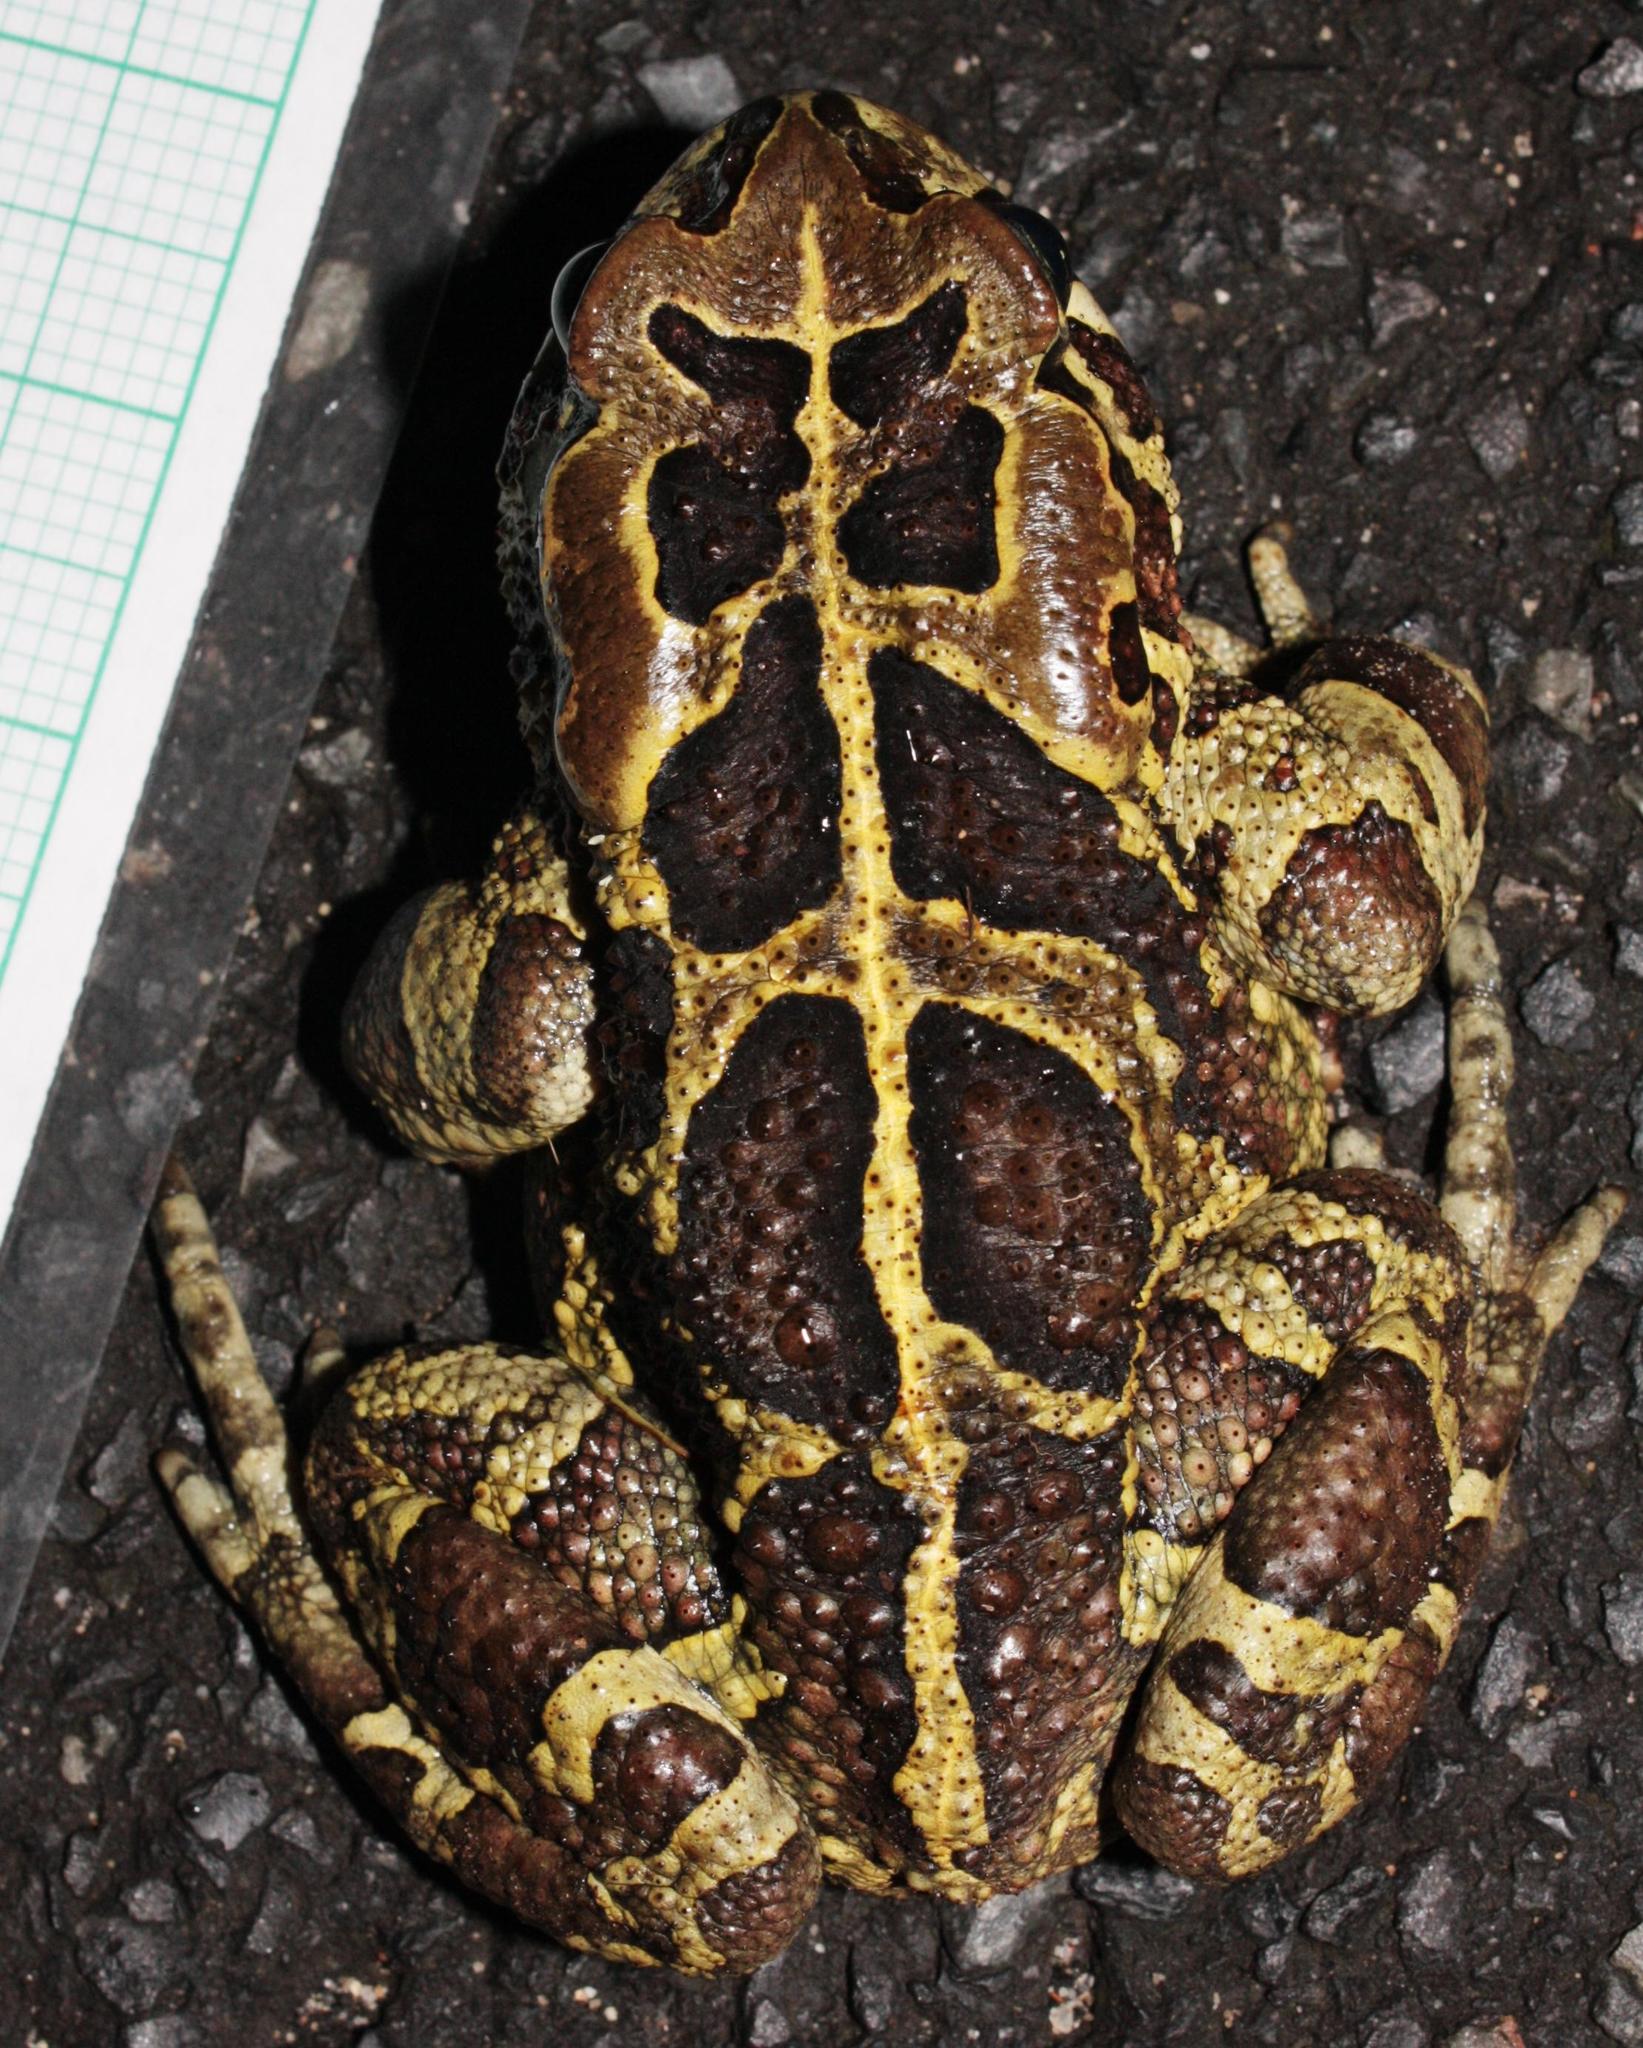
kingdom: Animalia
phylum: Chordata
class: Amphibia
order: Anura
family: Bufonidae
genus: Sclerophrys
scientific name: Sclerophrys pantherina
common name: Panther toad
